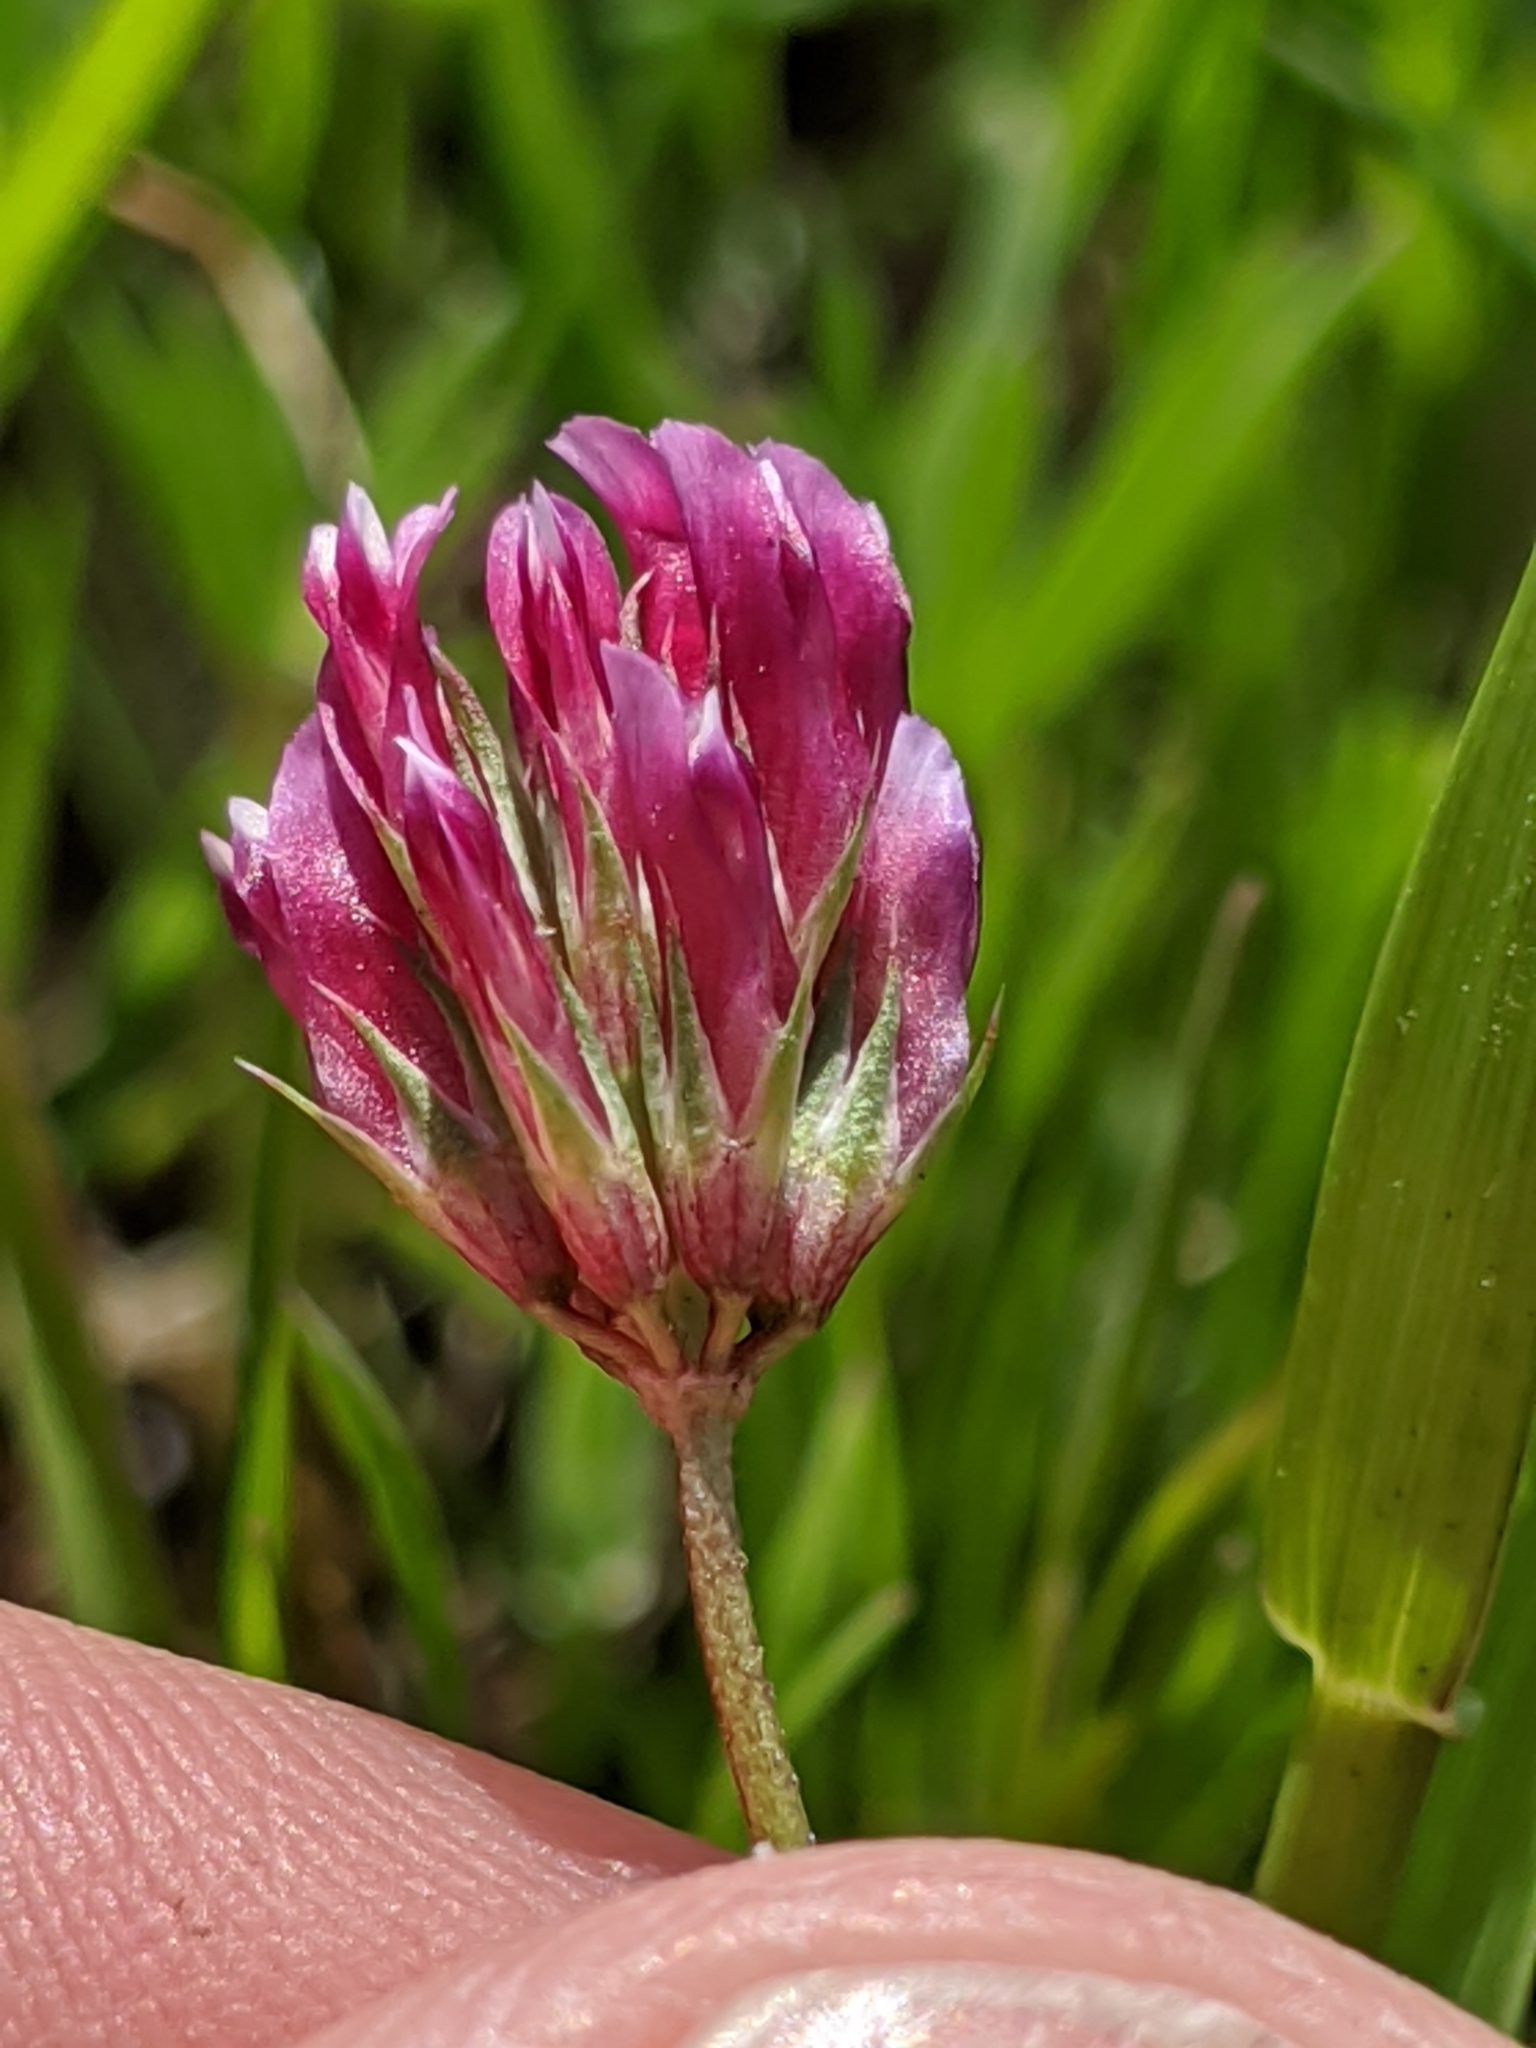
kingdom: Plantae
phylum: Tracheophyta
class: Magnoliopsida
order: Fabales
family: Fabaceae
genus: Trifolium
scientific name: Trifolium gracilentum
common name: Slender clover
